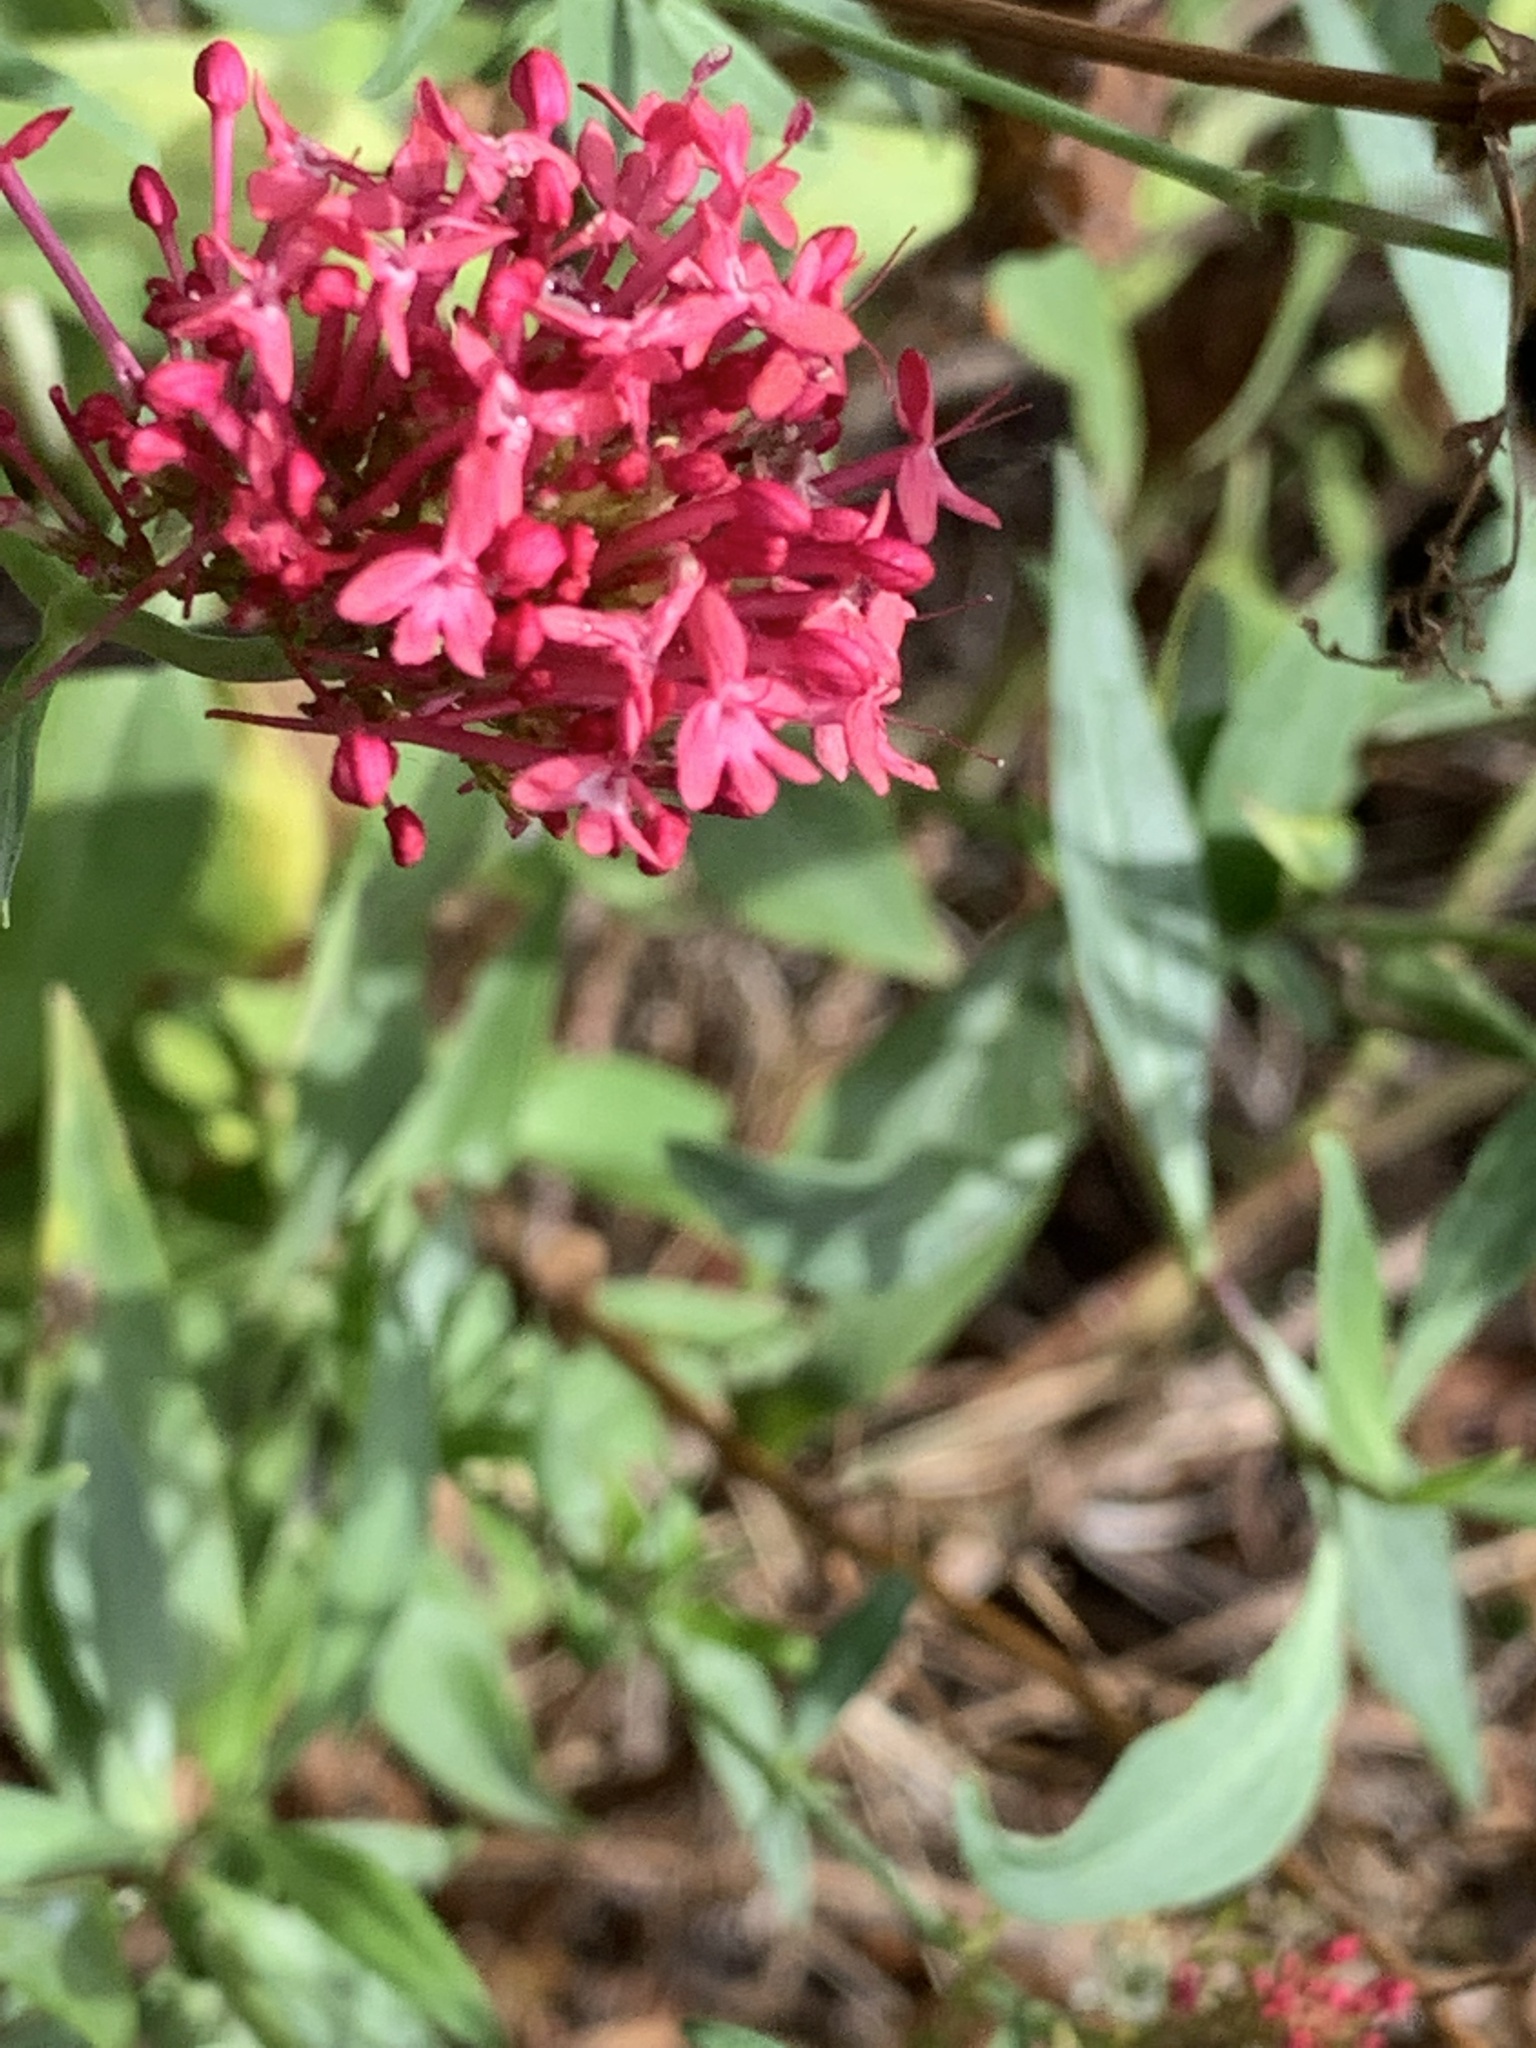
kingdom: Plantae
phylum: Tracheophyta
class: Magnoliopsida
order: Dipsacales
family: Caprifoliaceae
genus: Centranthus
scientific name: Centranthus ruber
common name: Red valerian
